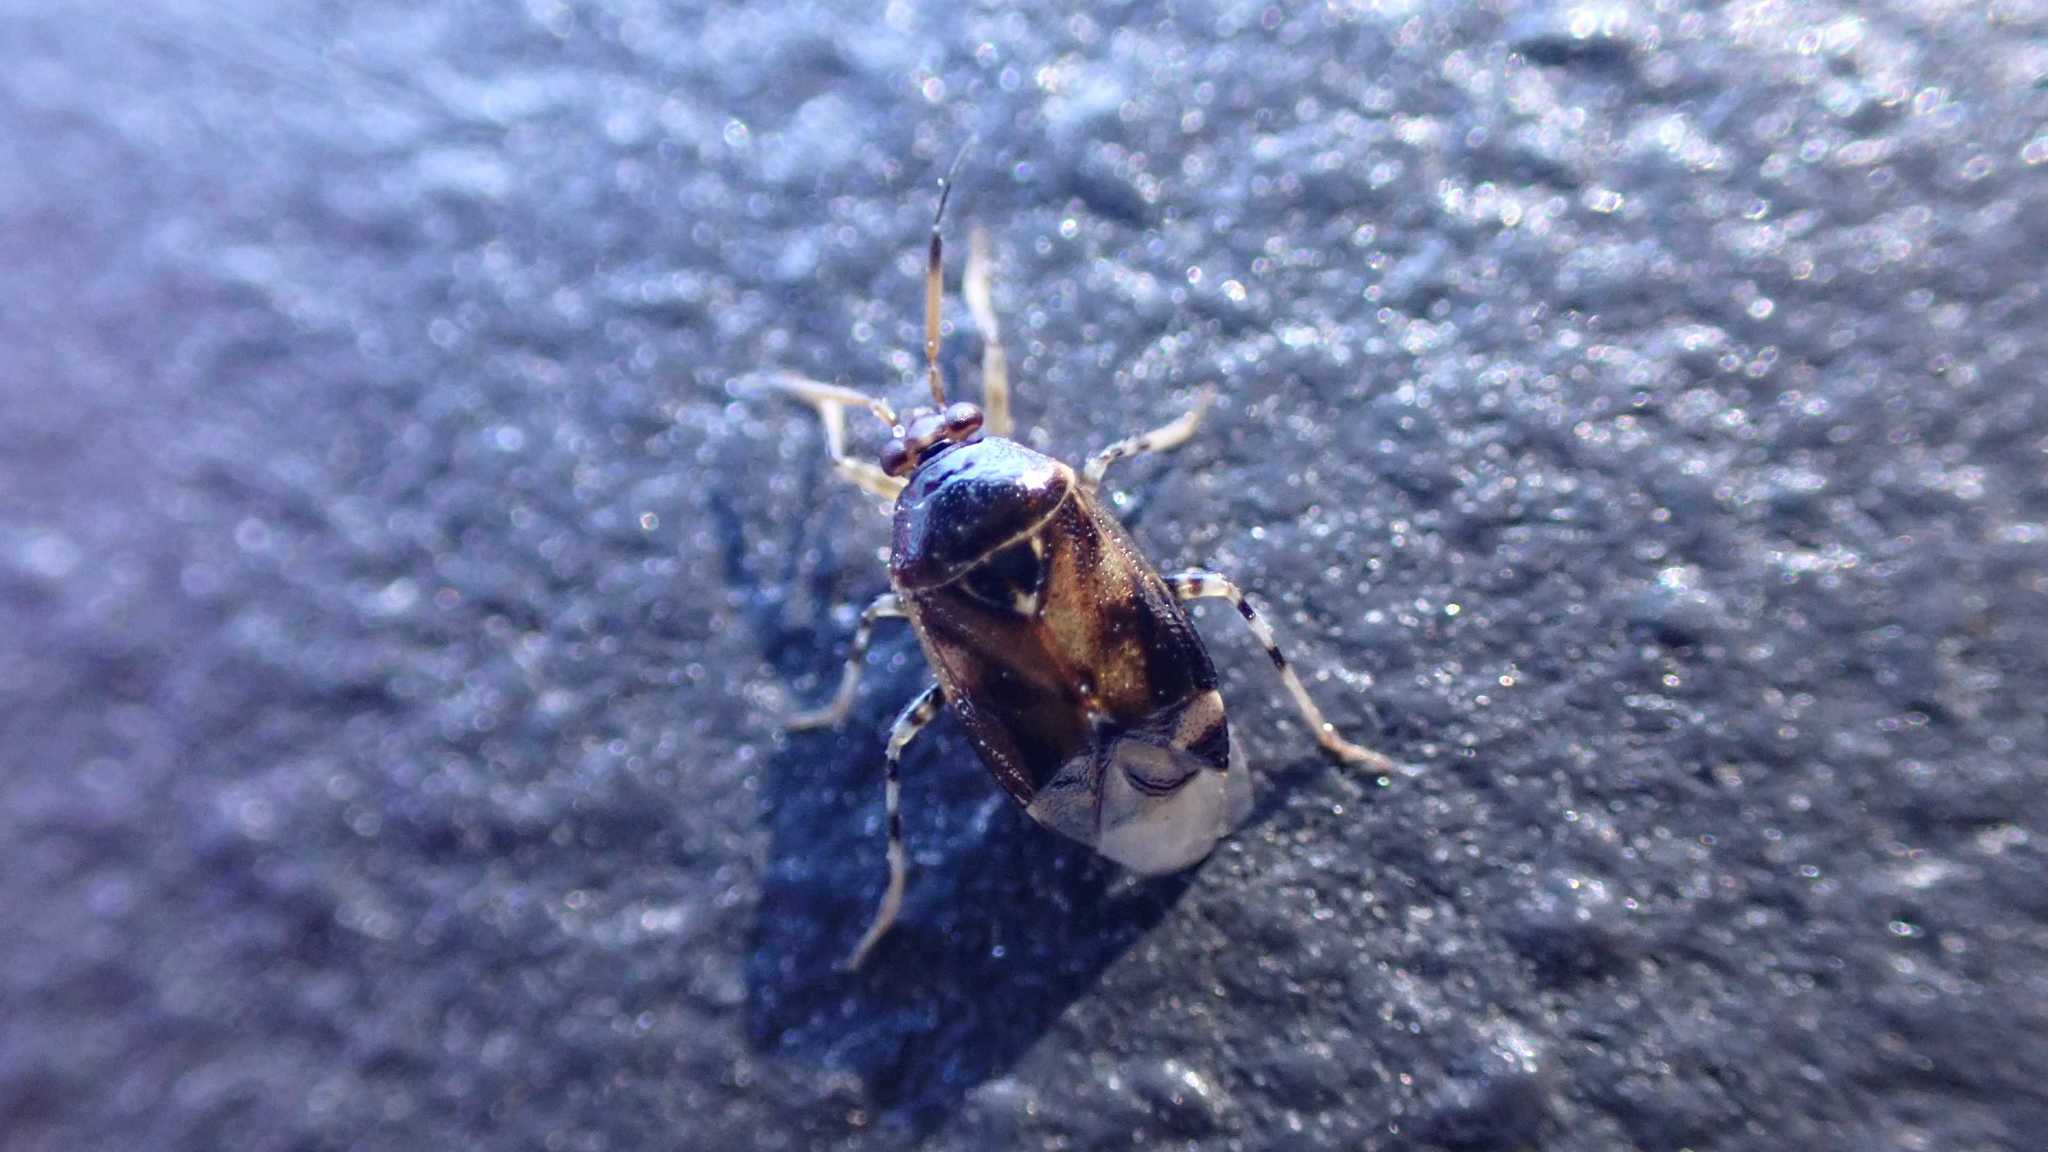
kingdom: Animalia
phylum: Arthropoda
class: Insecta
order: Hemiptera
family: Miridae
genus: Deraeocoris
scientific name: Deraeocoris lutescens
